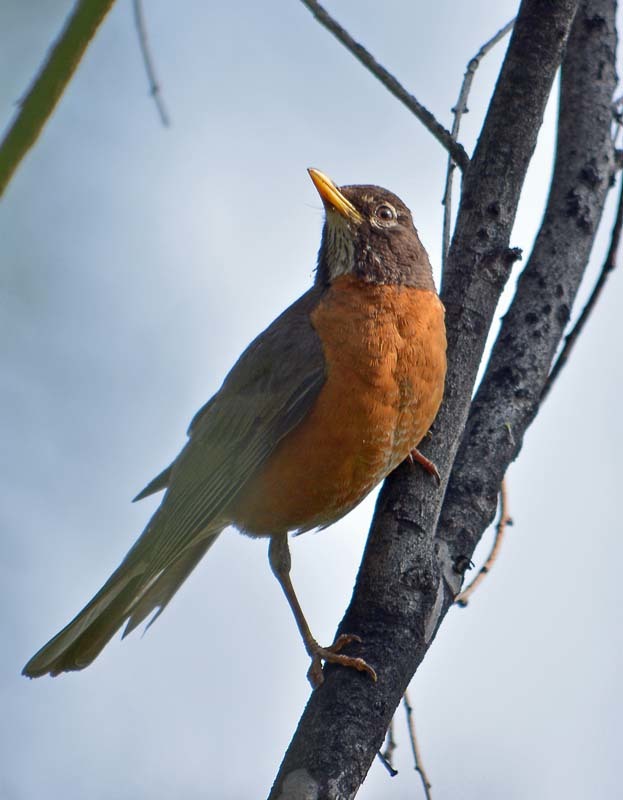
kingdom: Animalia
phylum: Chordata
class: Aves
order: Passeriformes
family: Turdidae
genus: Turdus
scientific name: Turdus migratorius
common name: American robin
